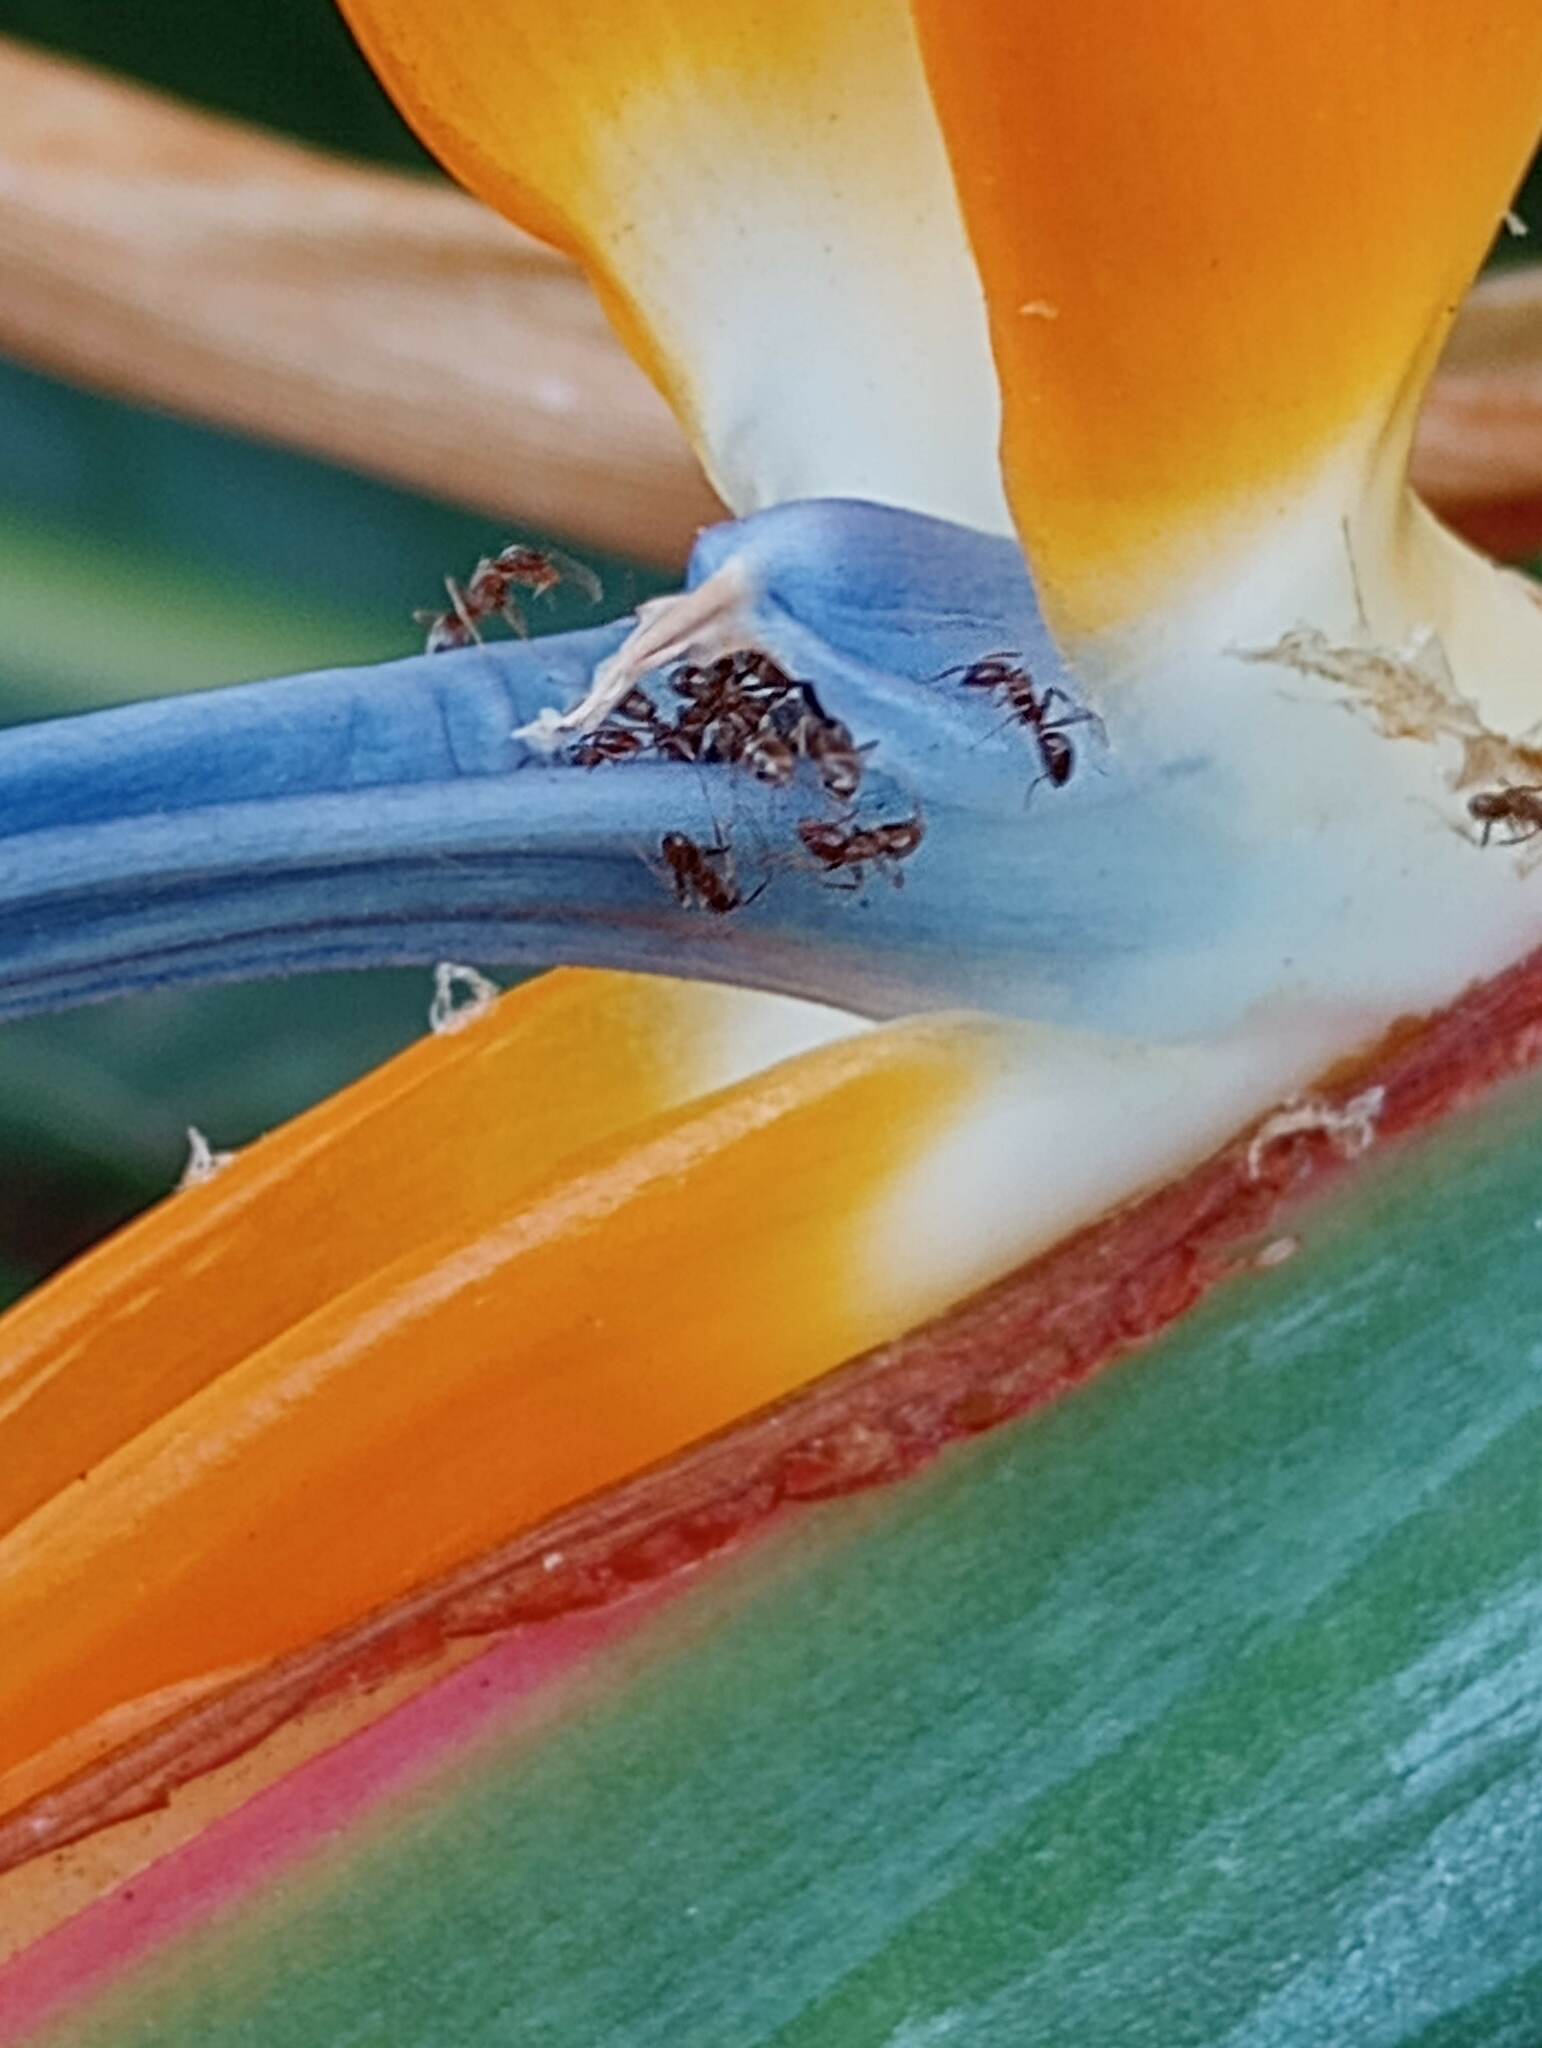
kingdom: Animalia
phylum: Arthropoda
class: Insecta
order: Hymenoptera
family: Formicidae
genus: Linepithema
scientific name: Linepithema humile
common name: Argentine ant
